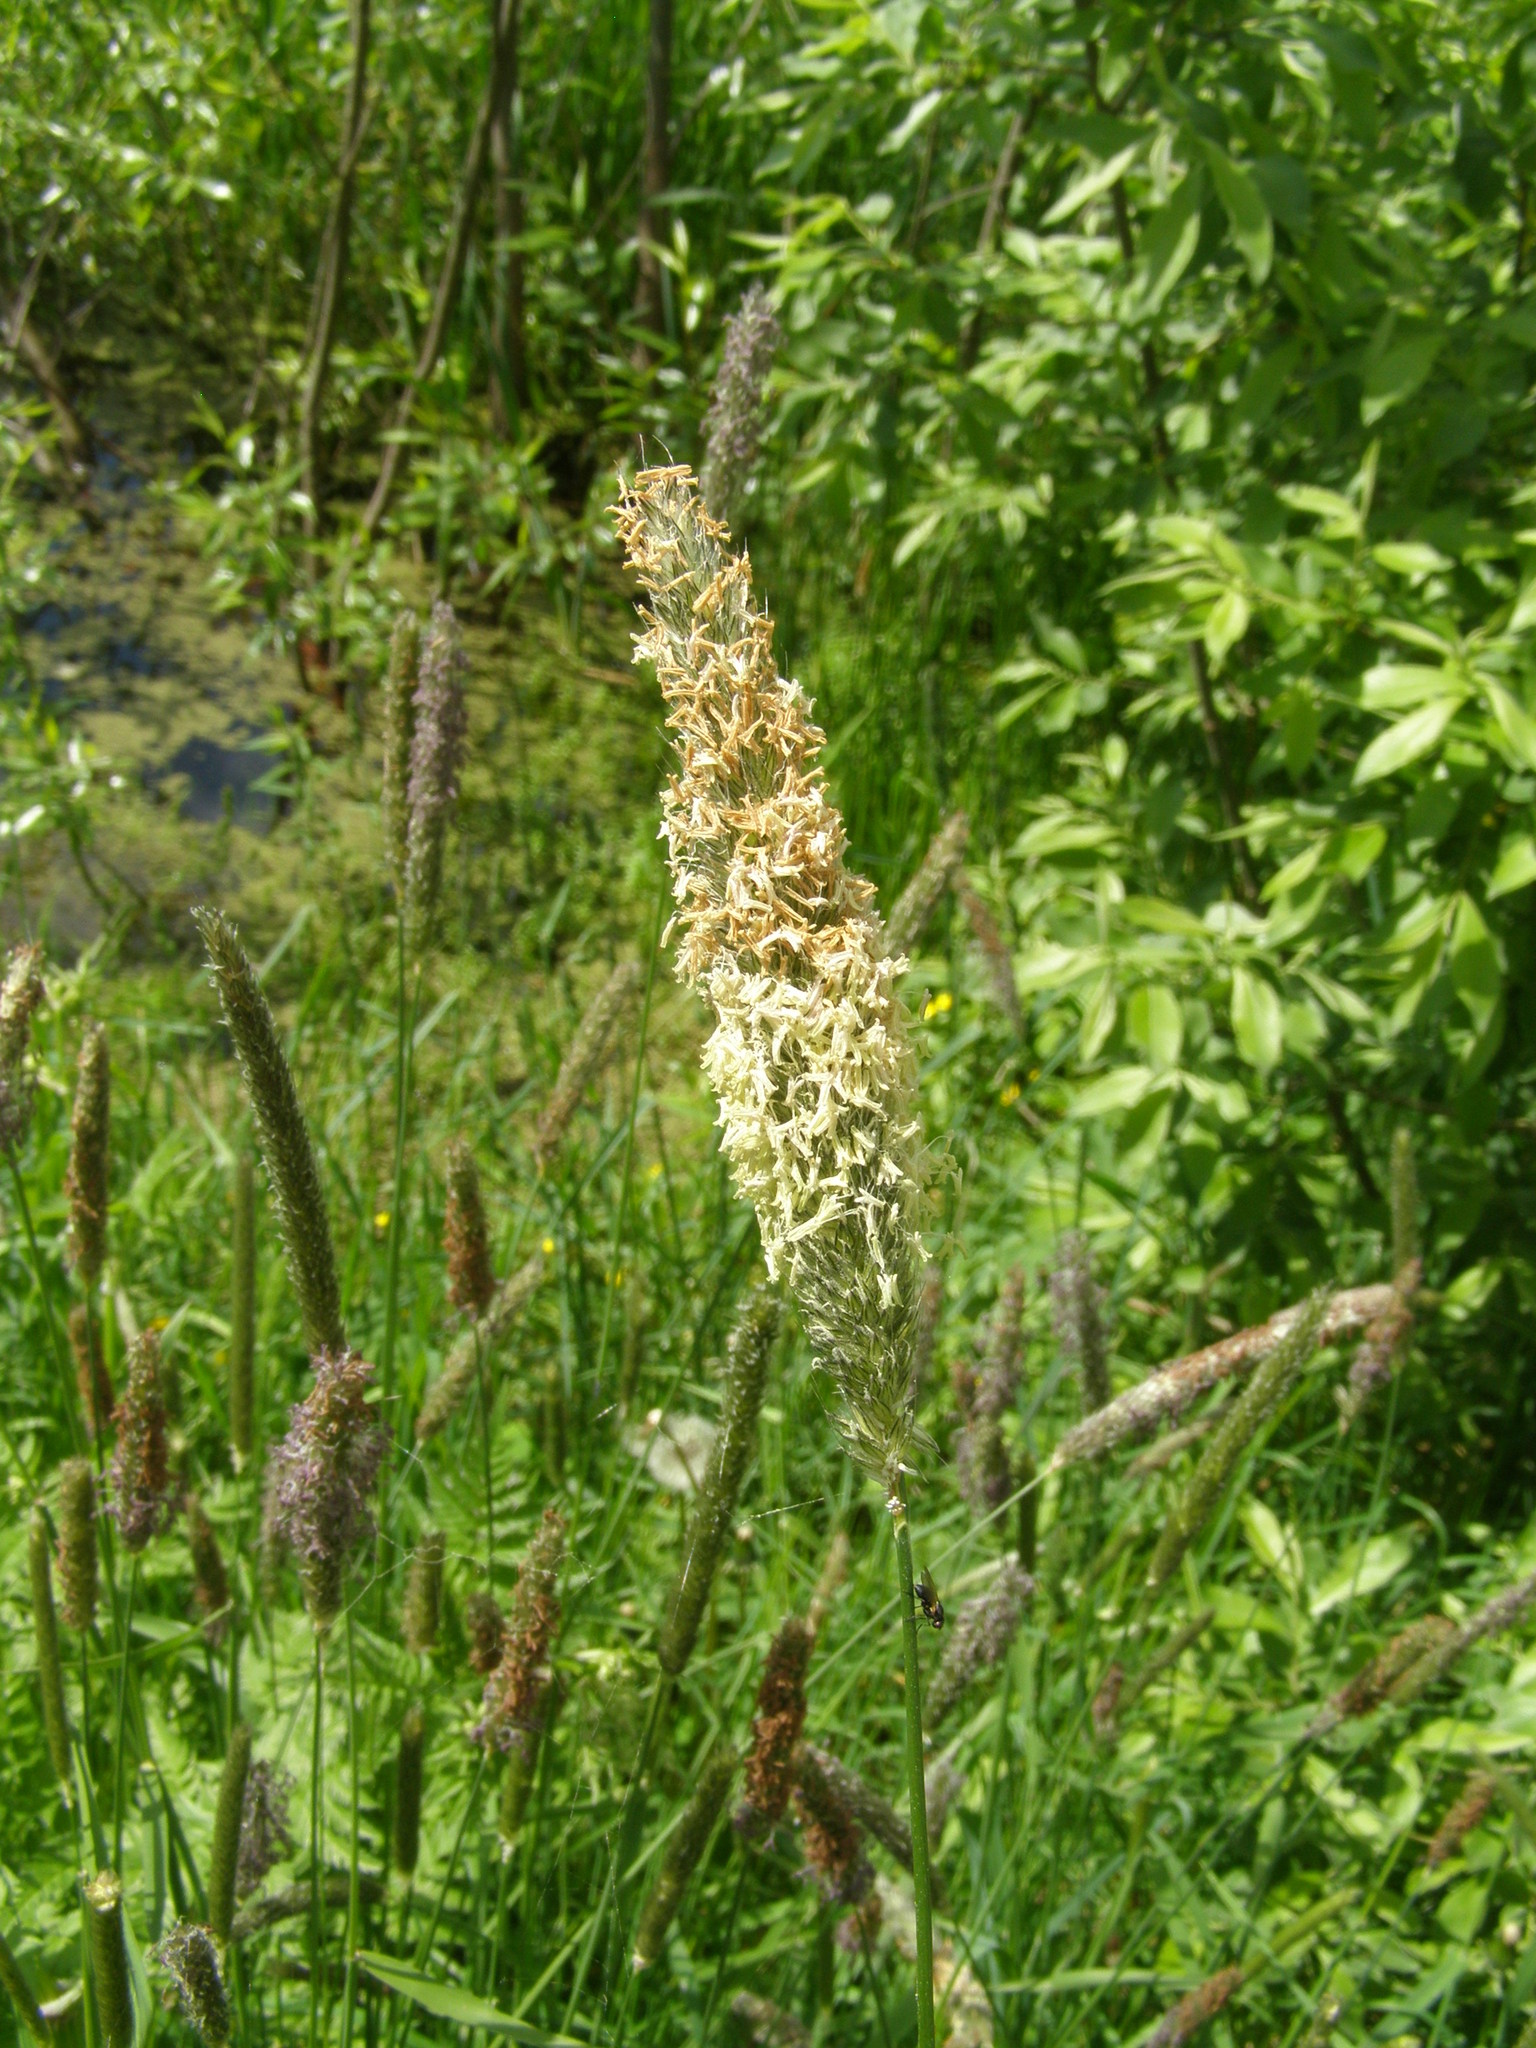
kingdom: Plantae
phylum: Tracheophyta
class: Liliopsida
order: Poales
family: Poaceae
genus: Alopecurus
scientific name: Alopecurus pratensis
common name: Meadow foxtail
